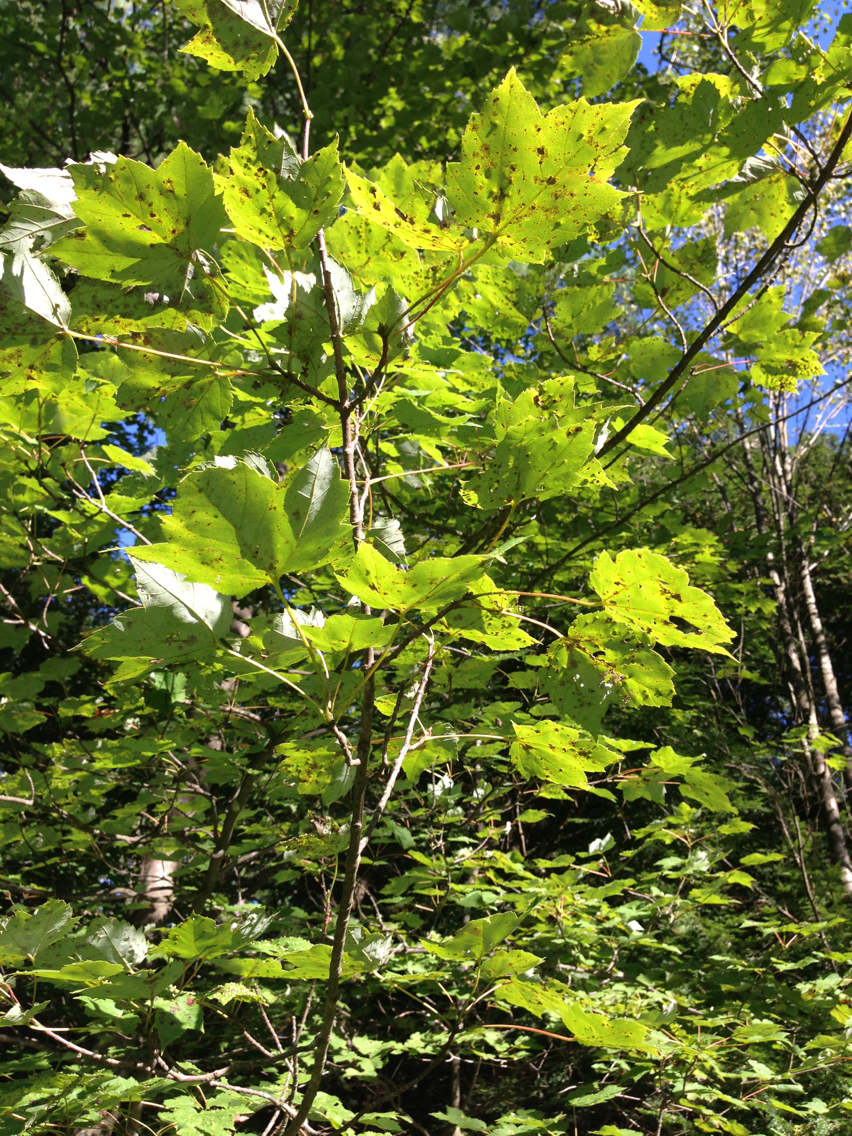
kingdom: Plantae
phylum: Tracheophyta
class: Magnoliopsida
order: Sapindales
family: Sapindaceae
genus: Acer
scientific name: Acer rubrum
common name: Red maple
